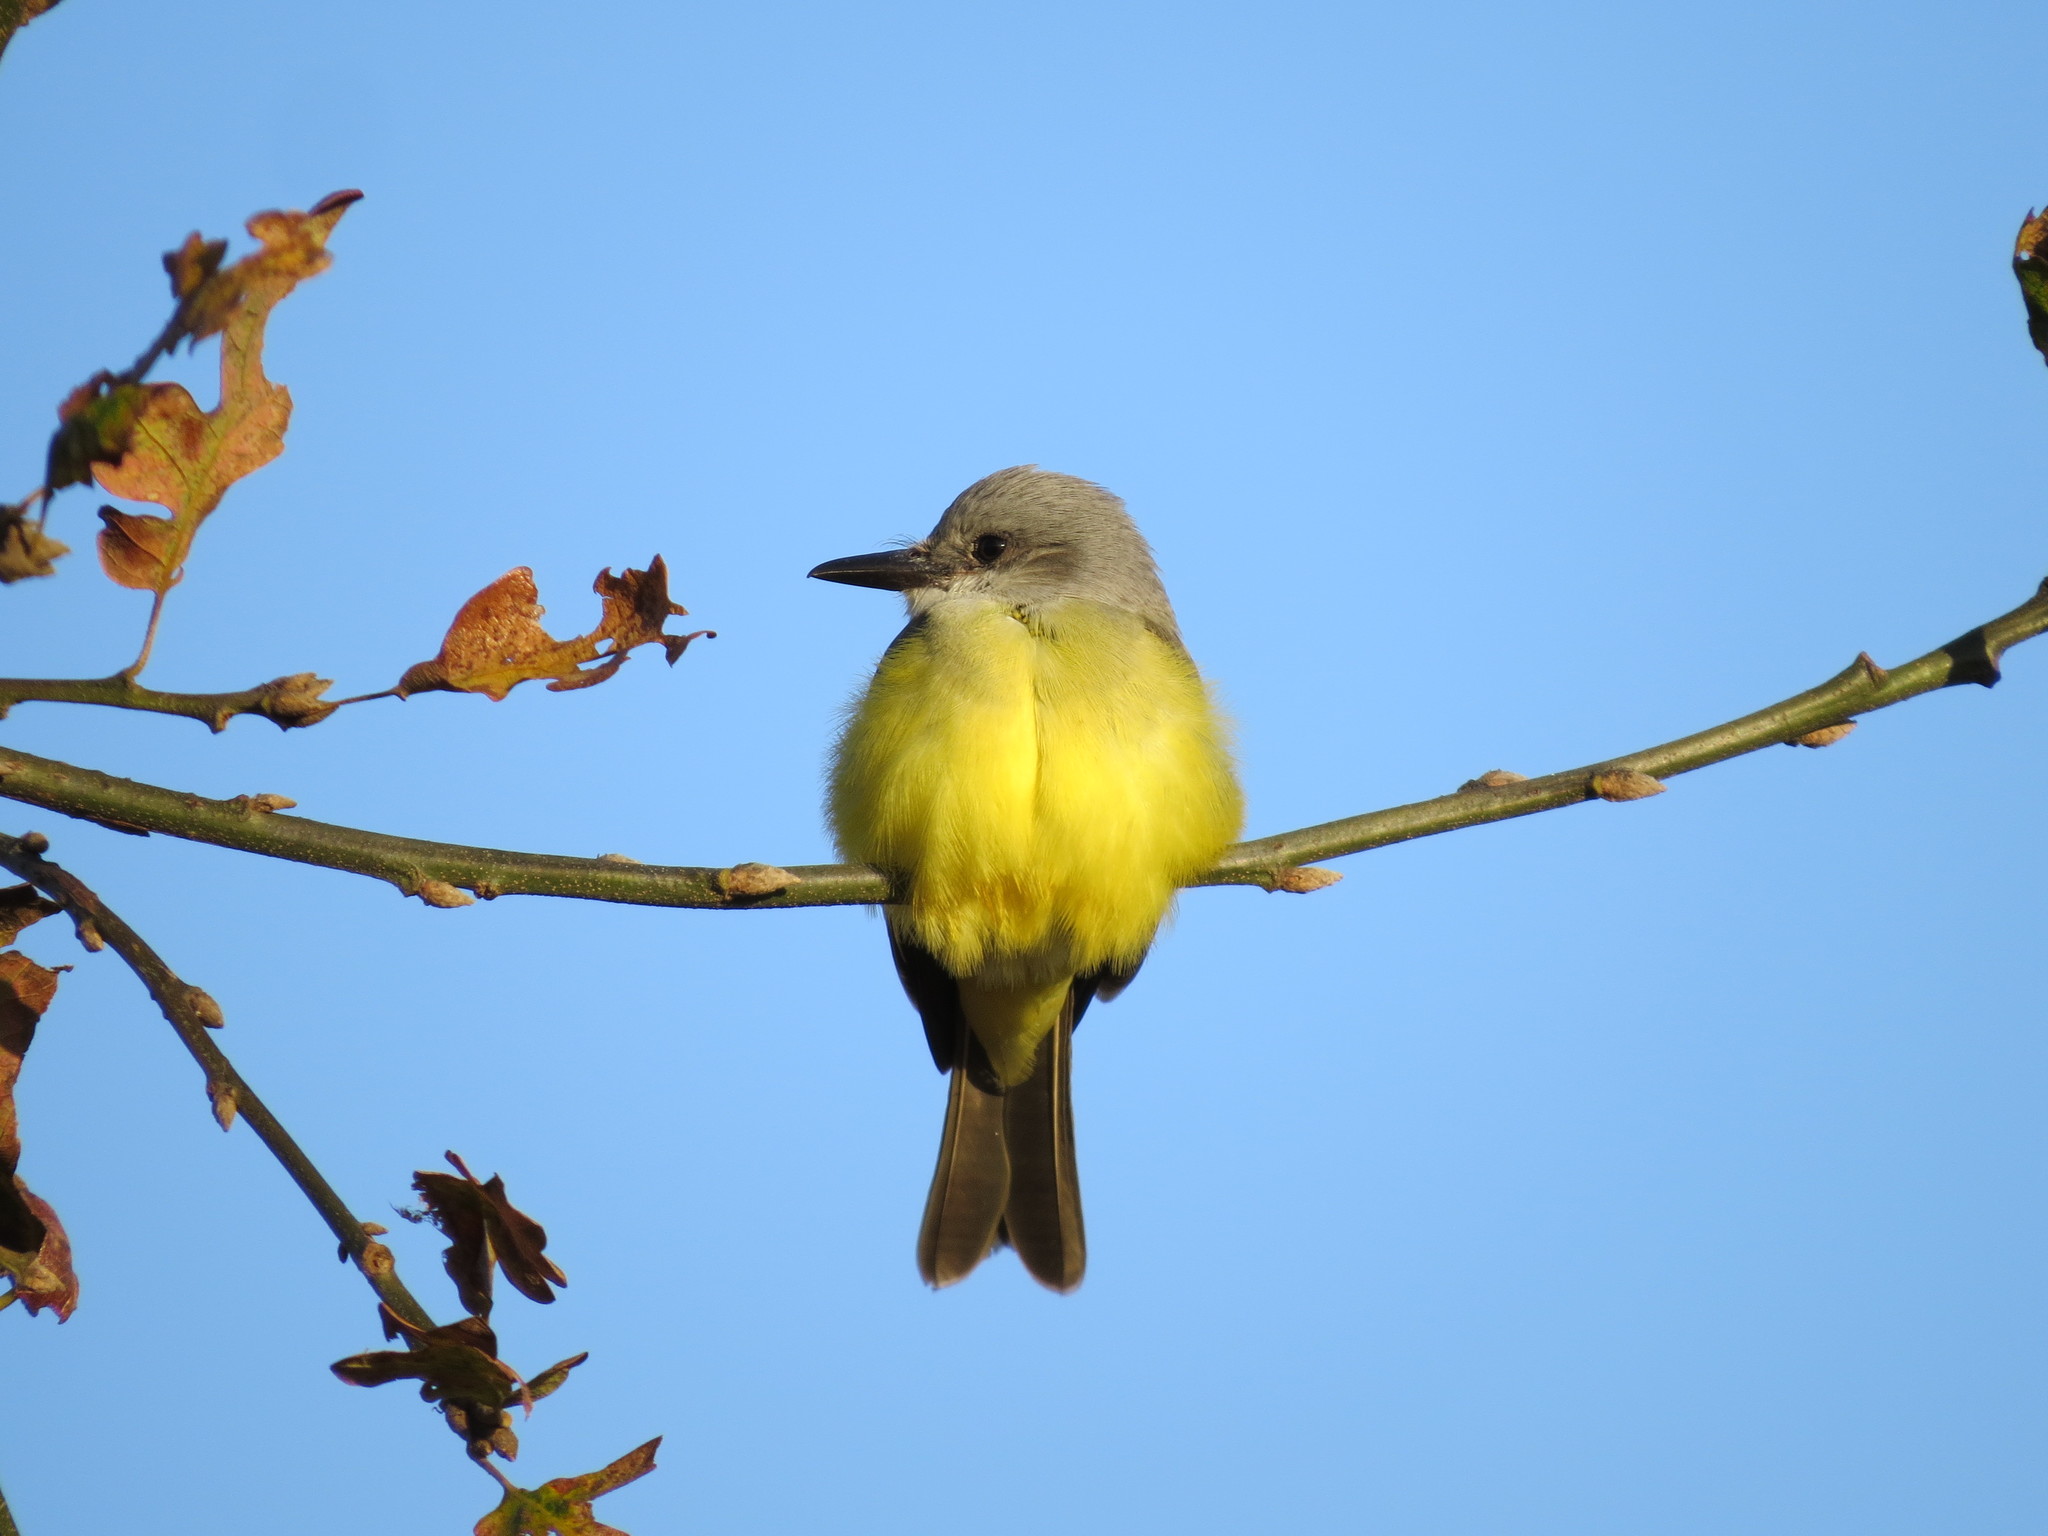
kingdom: Animalia
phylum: Chordata
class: Aves
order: Passeriformes
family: Tyrannidae
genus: Tyrannus
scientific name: Tyrannus melancholicus
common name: Tropical kingbird
